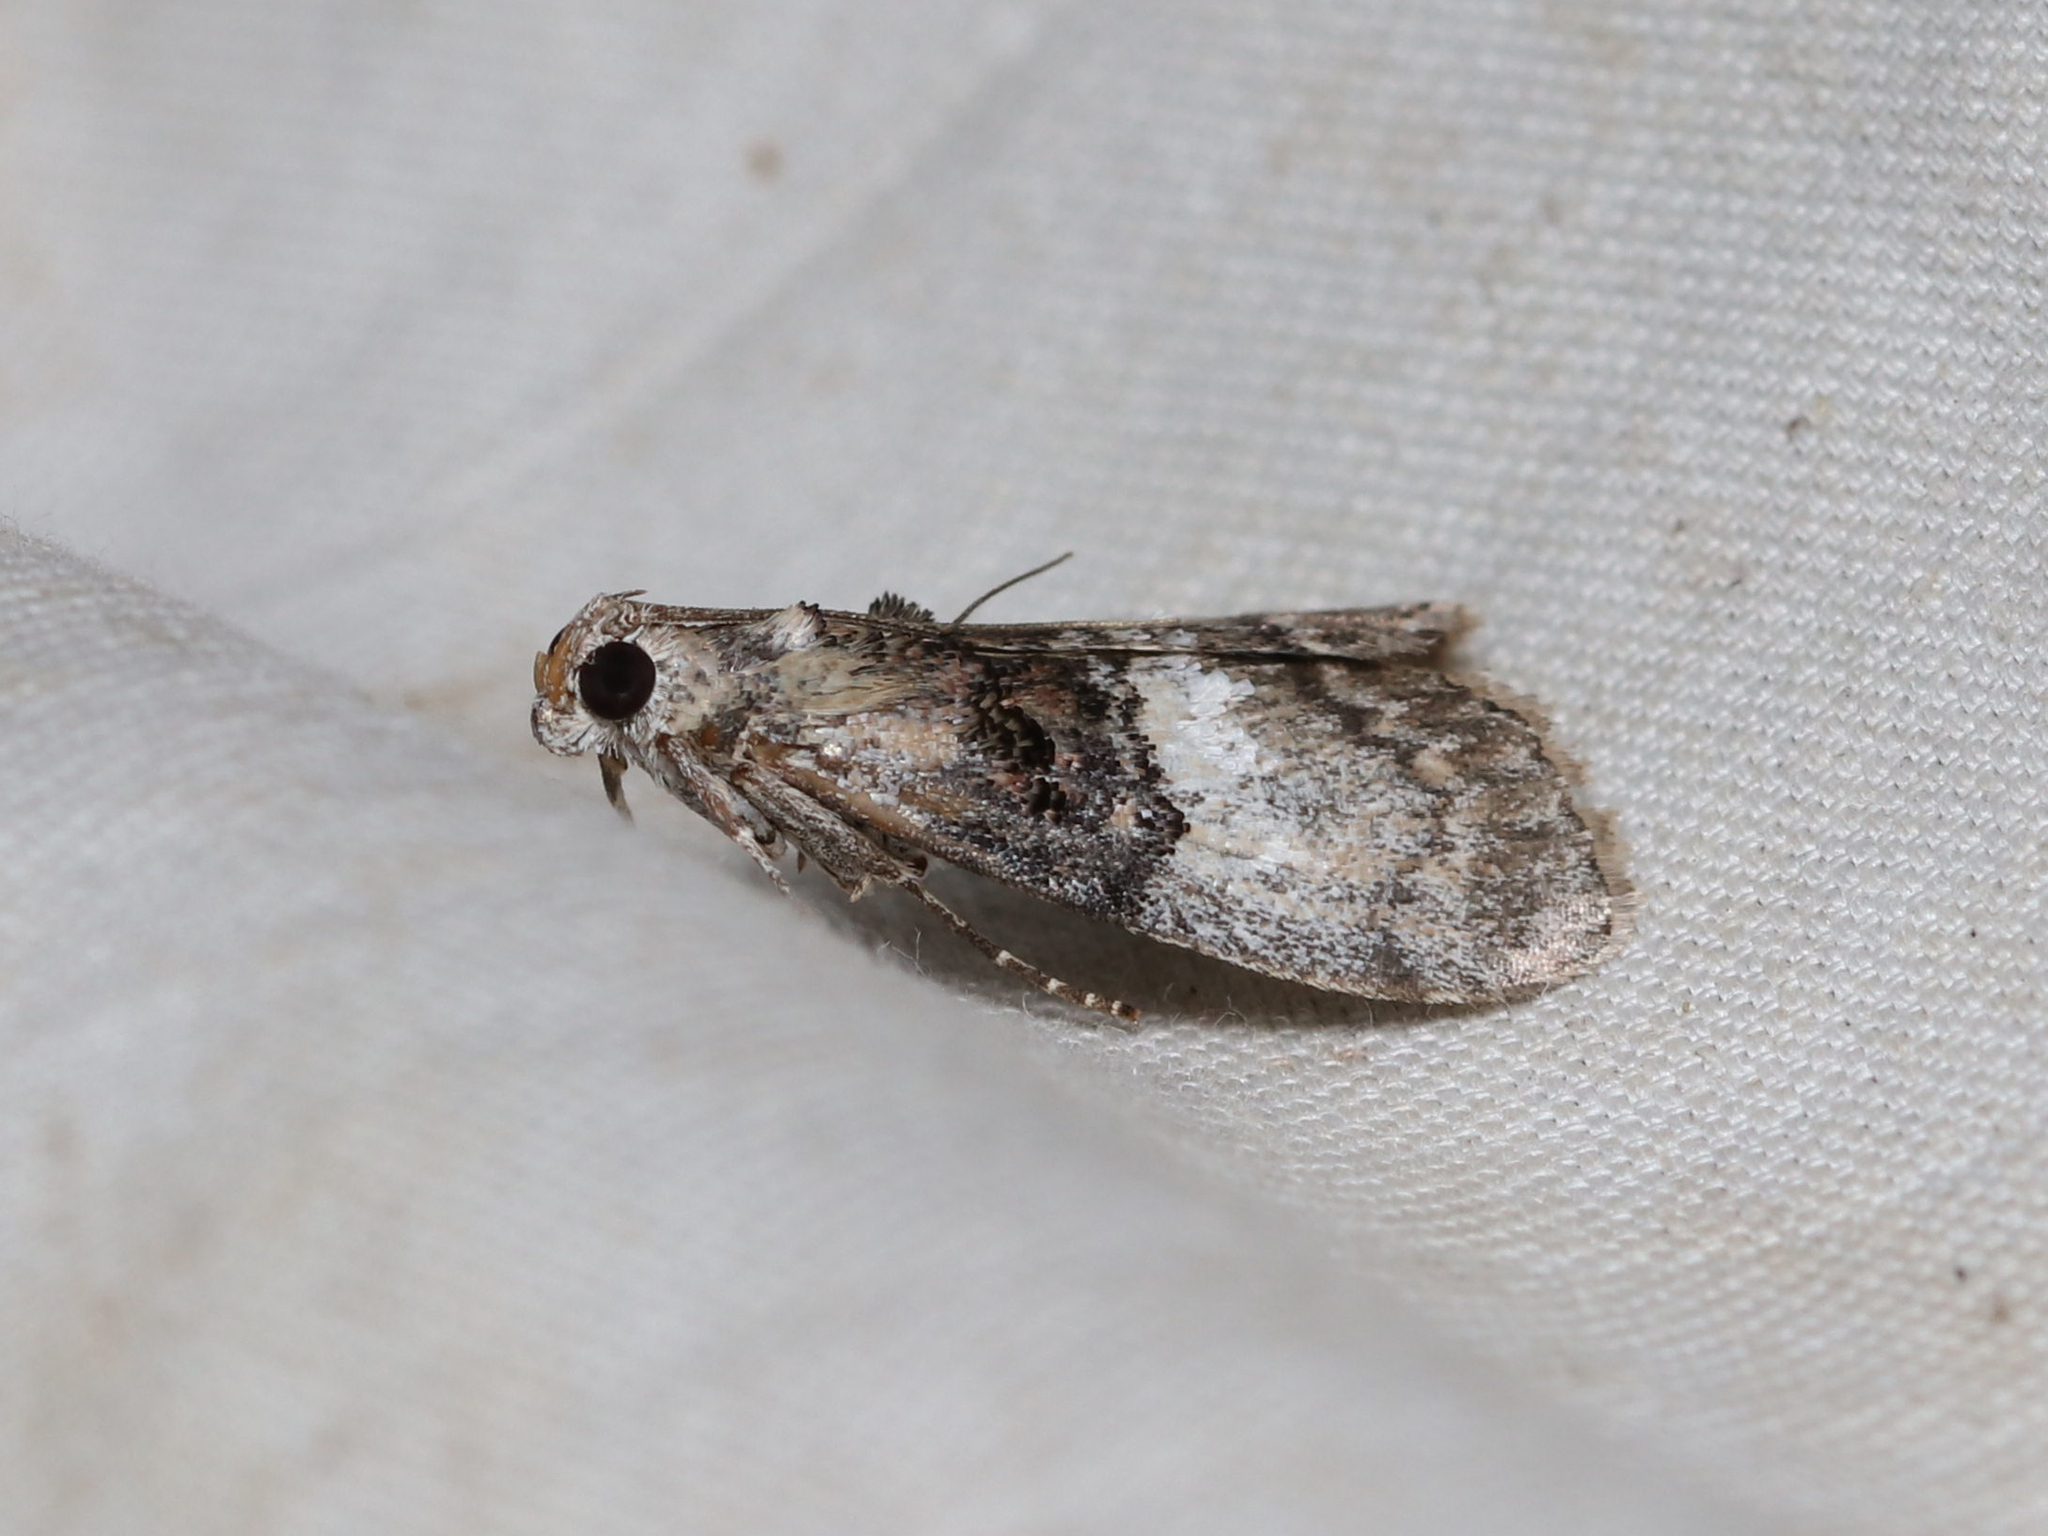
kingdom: Animalia
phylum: Arthropoda
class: Insecta
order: Lepidoptera
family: Pyralidae
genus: Pococera
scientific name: Pococera aplastella
